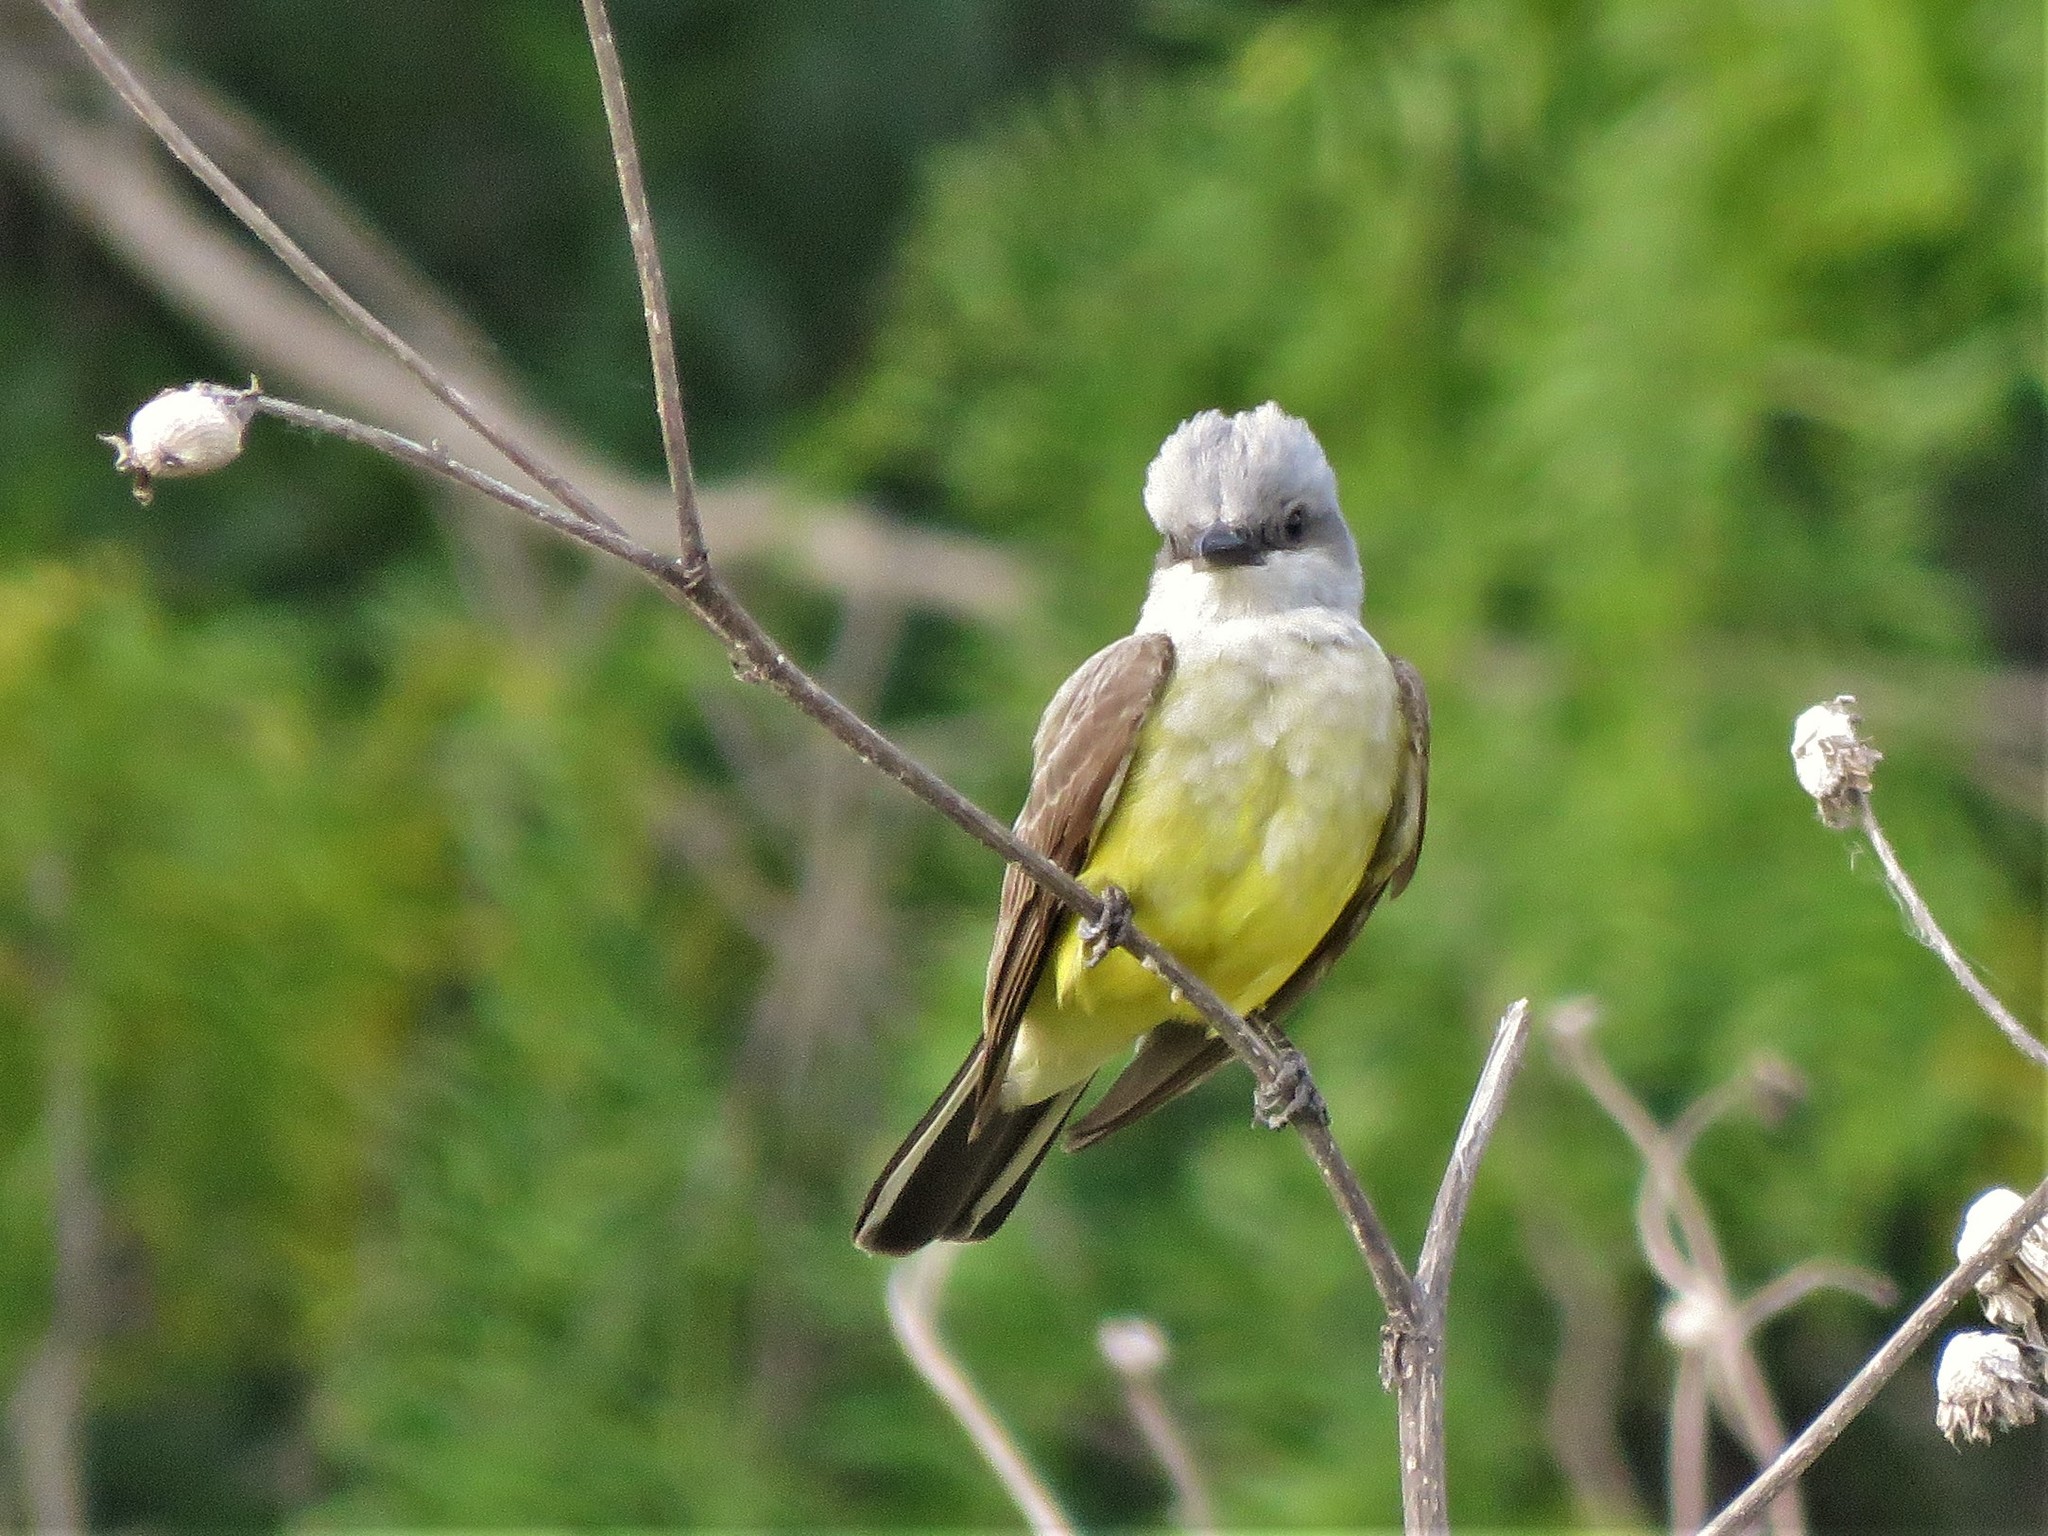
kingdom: Animalia
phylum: Chordata
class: Aves
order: Passeriformes
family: Tyrannidae
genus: Tyrannus
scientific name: Tyrannus verticalis
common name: Western kingbird
